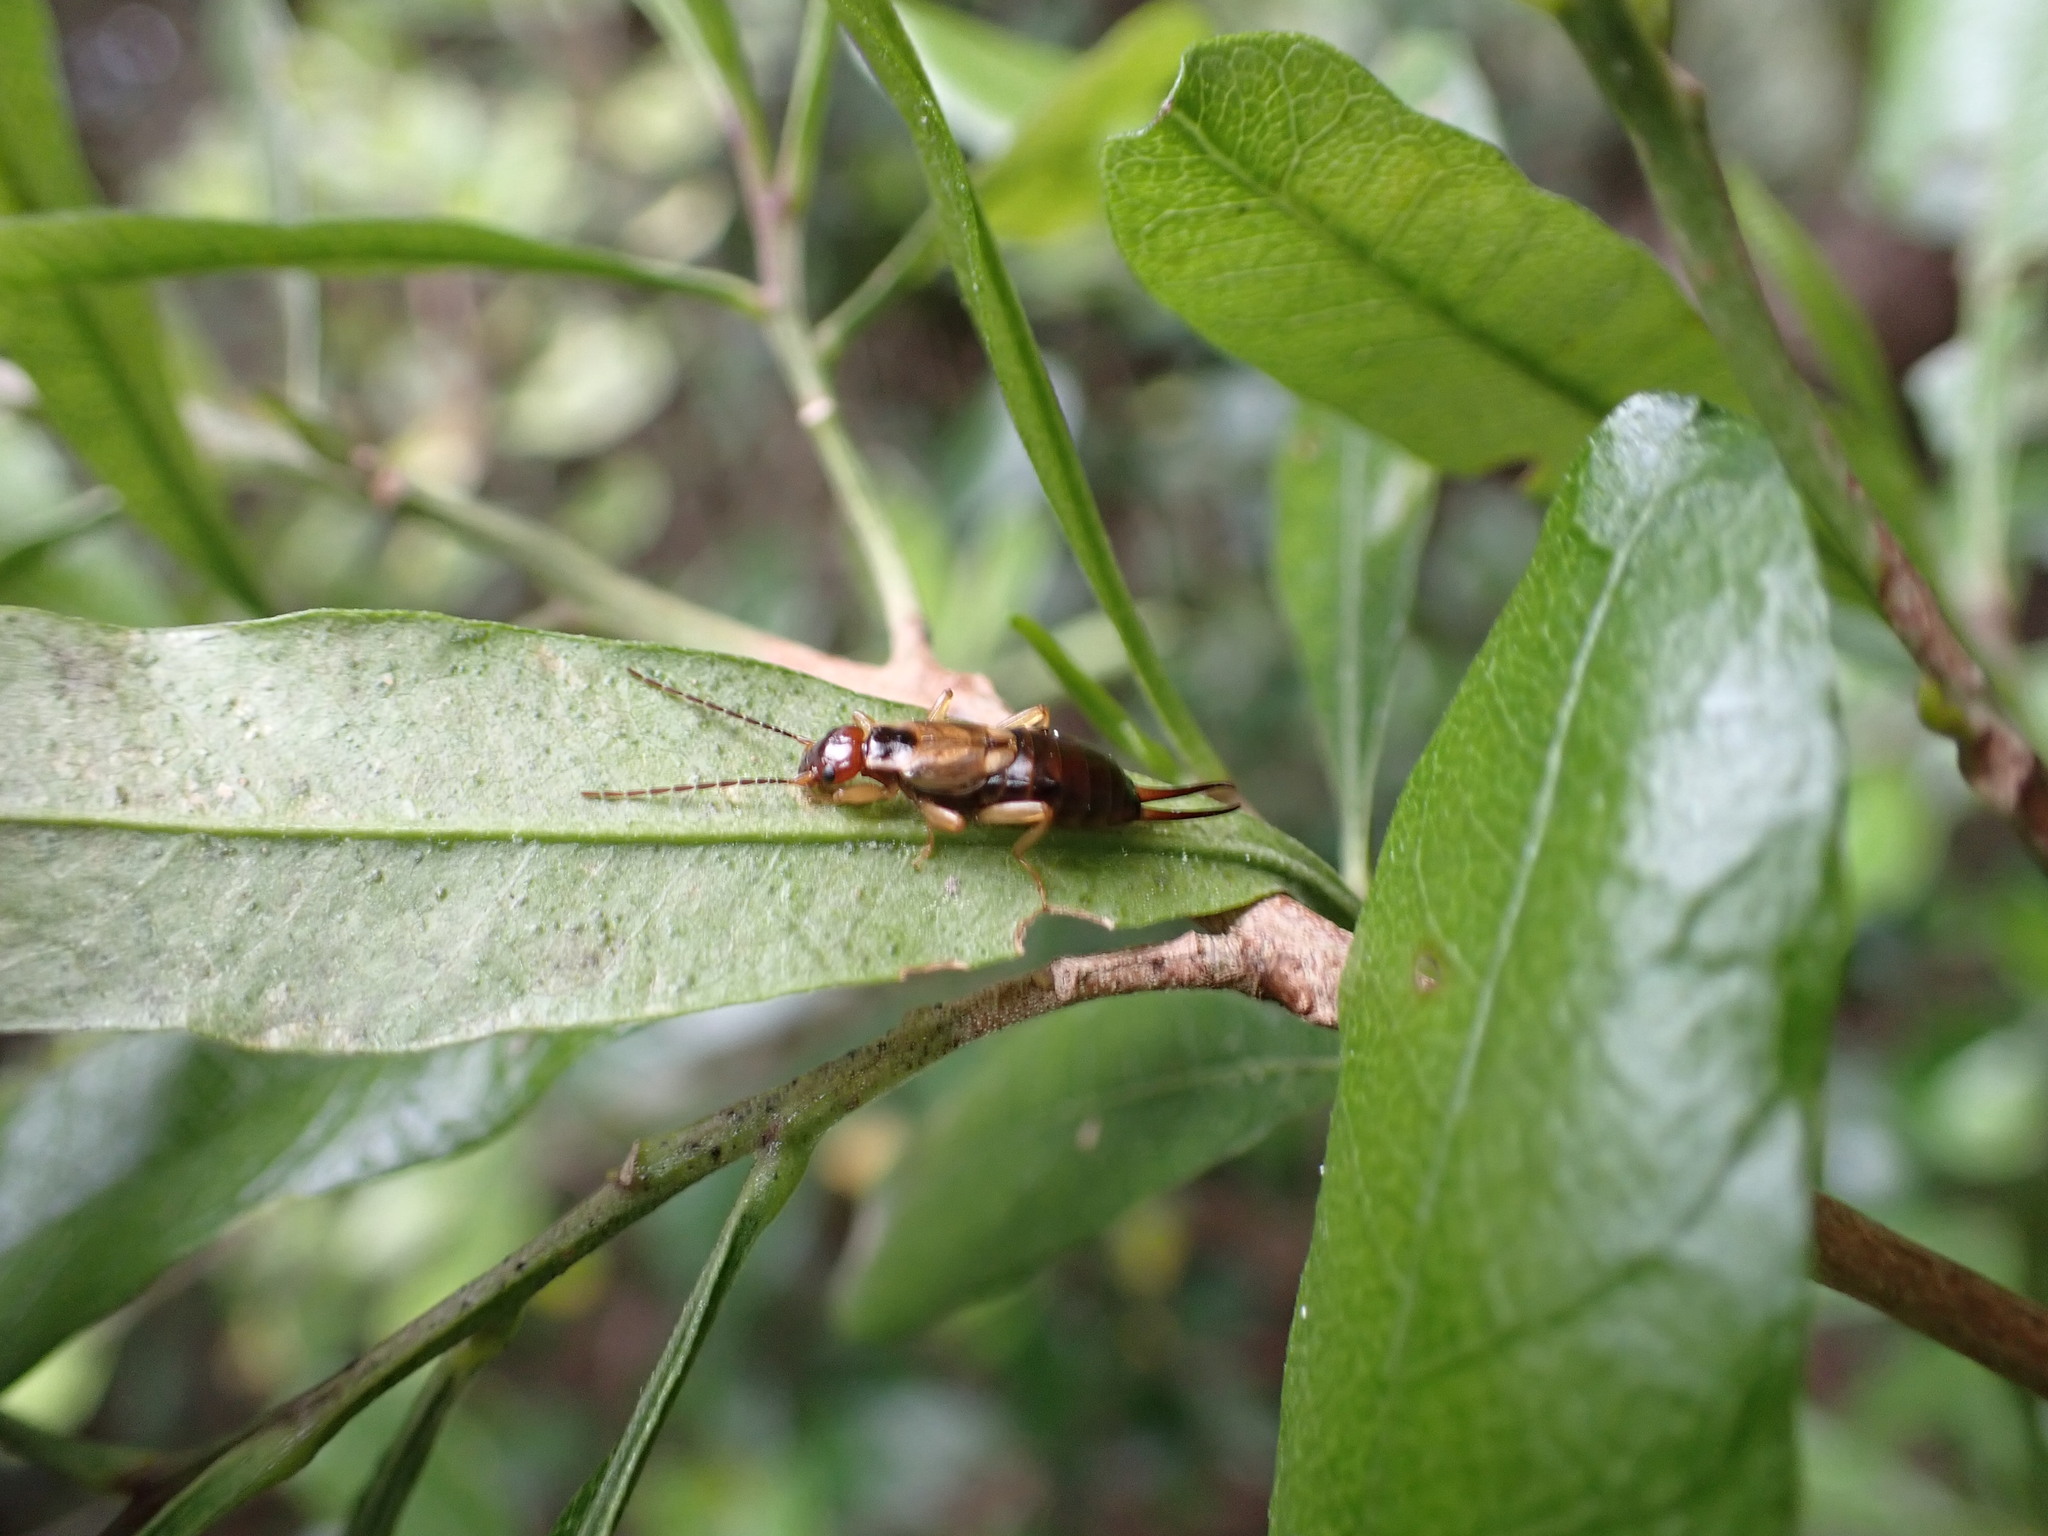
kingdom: Animalia
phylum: Arthropoda
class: Insecta
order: Dermaptera
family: Forficulidae
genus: Forficula
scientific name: Forficula
